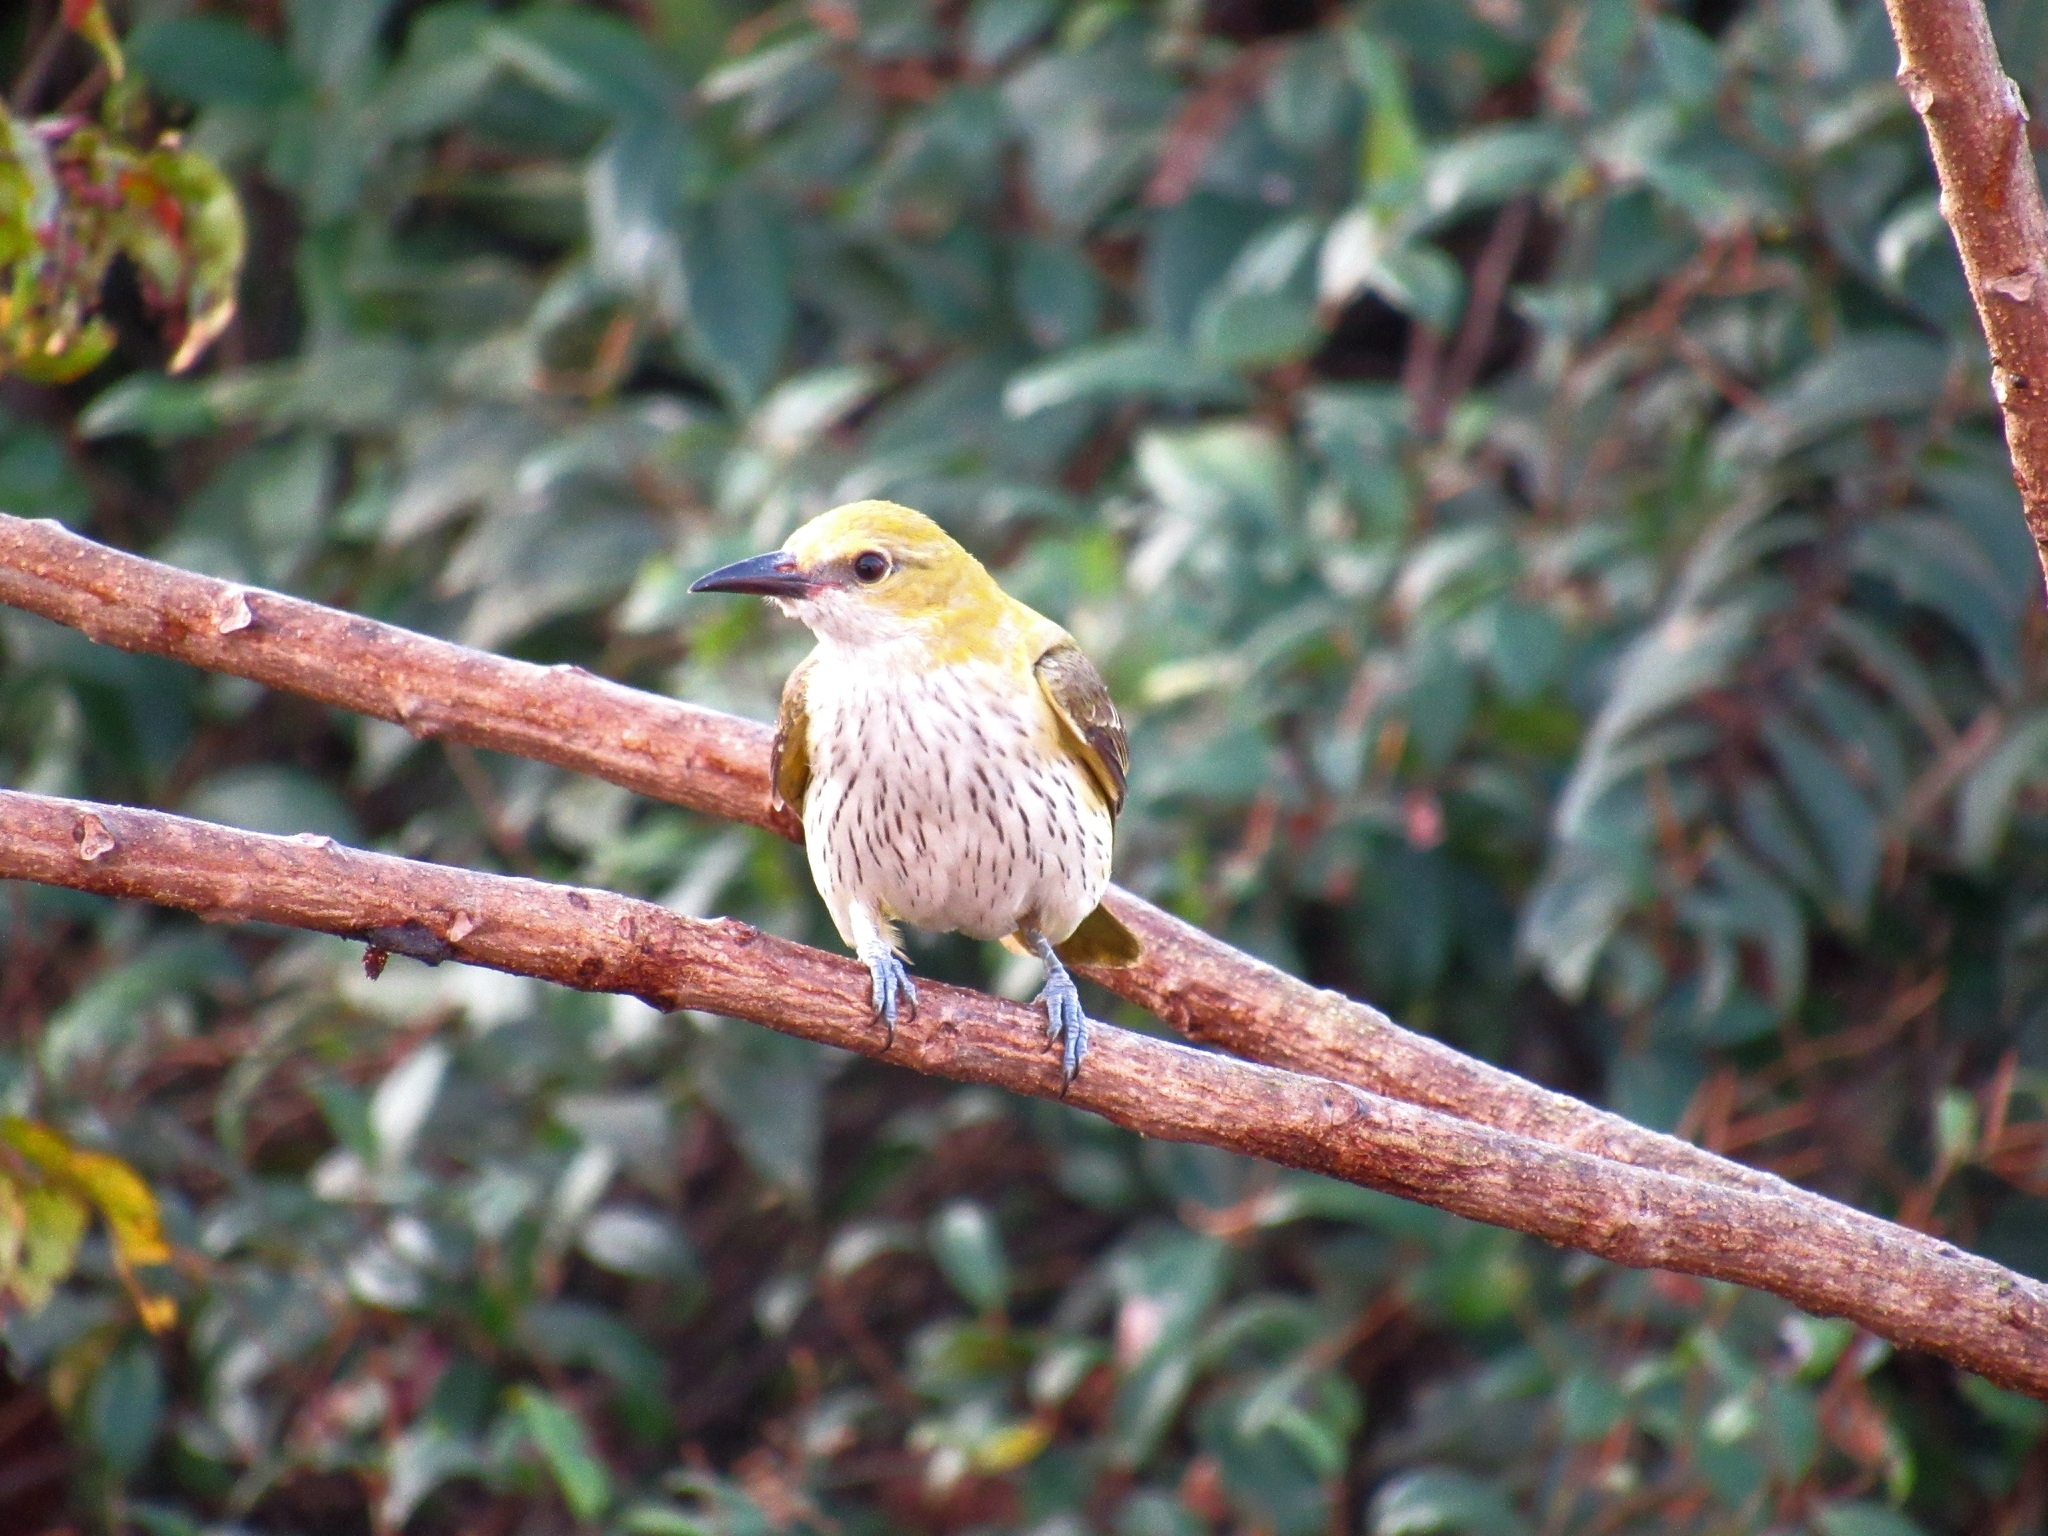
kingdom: Animalia
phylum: Chordata
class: Aves
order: Passeriformes
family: Oriolidae
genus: Oriolus
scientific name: Oriolus kundoo
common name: Indian golden oriole
